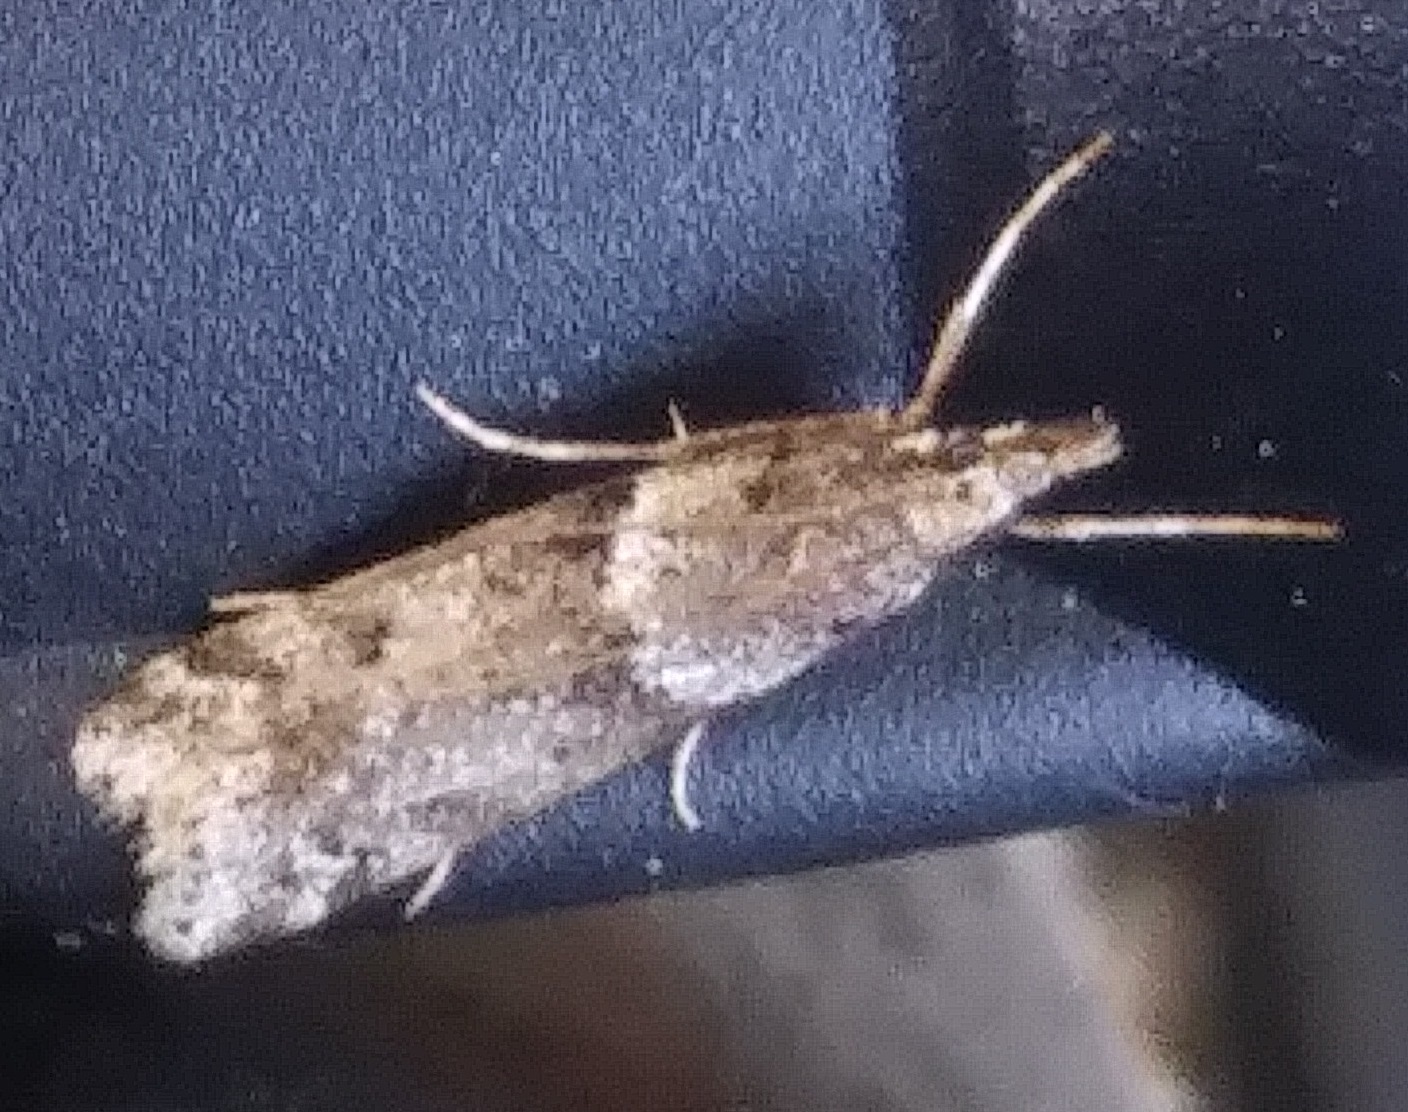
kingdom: Animalia
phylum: Arthropoda
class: Insecta
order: Lepidoptera
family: Crambidae
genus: Eudonia
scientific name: Eudonia angustea
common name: Narrow-winged grey
